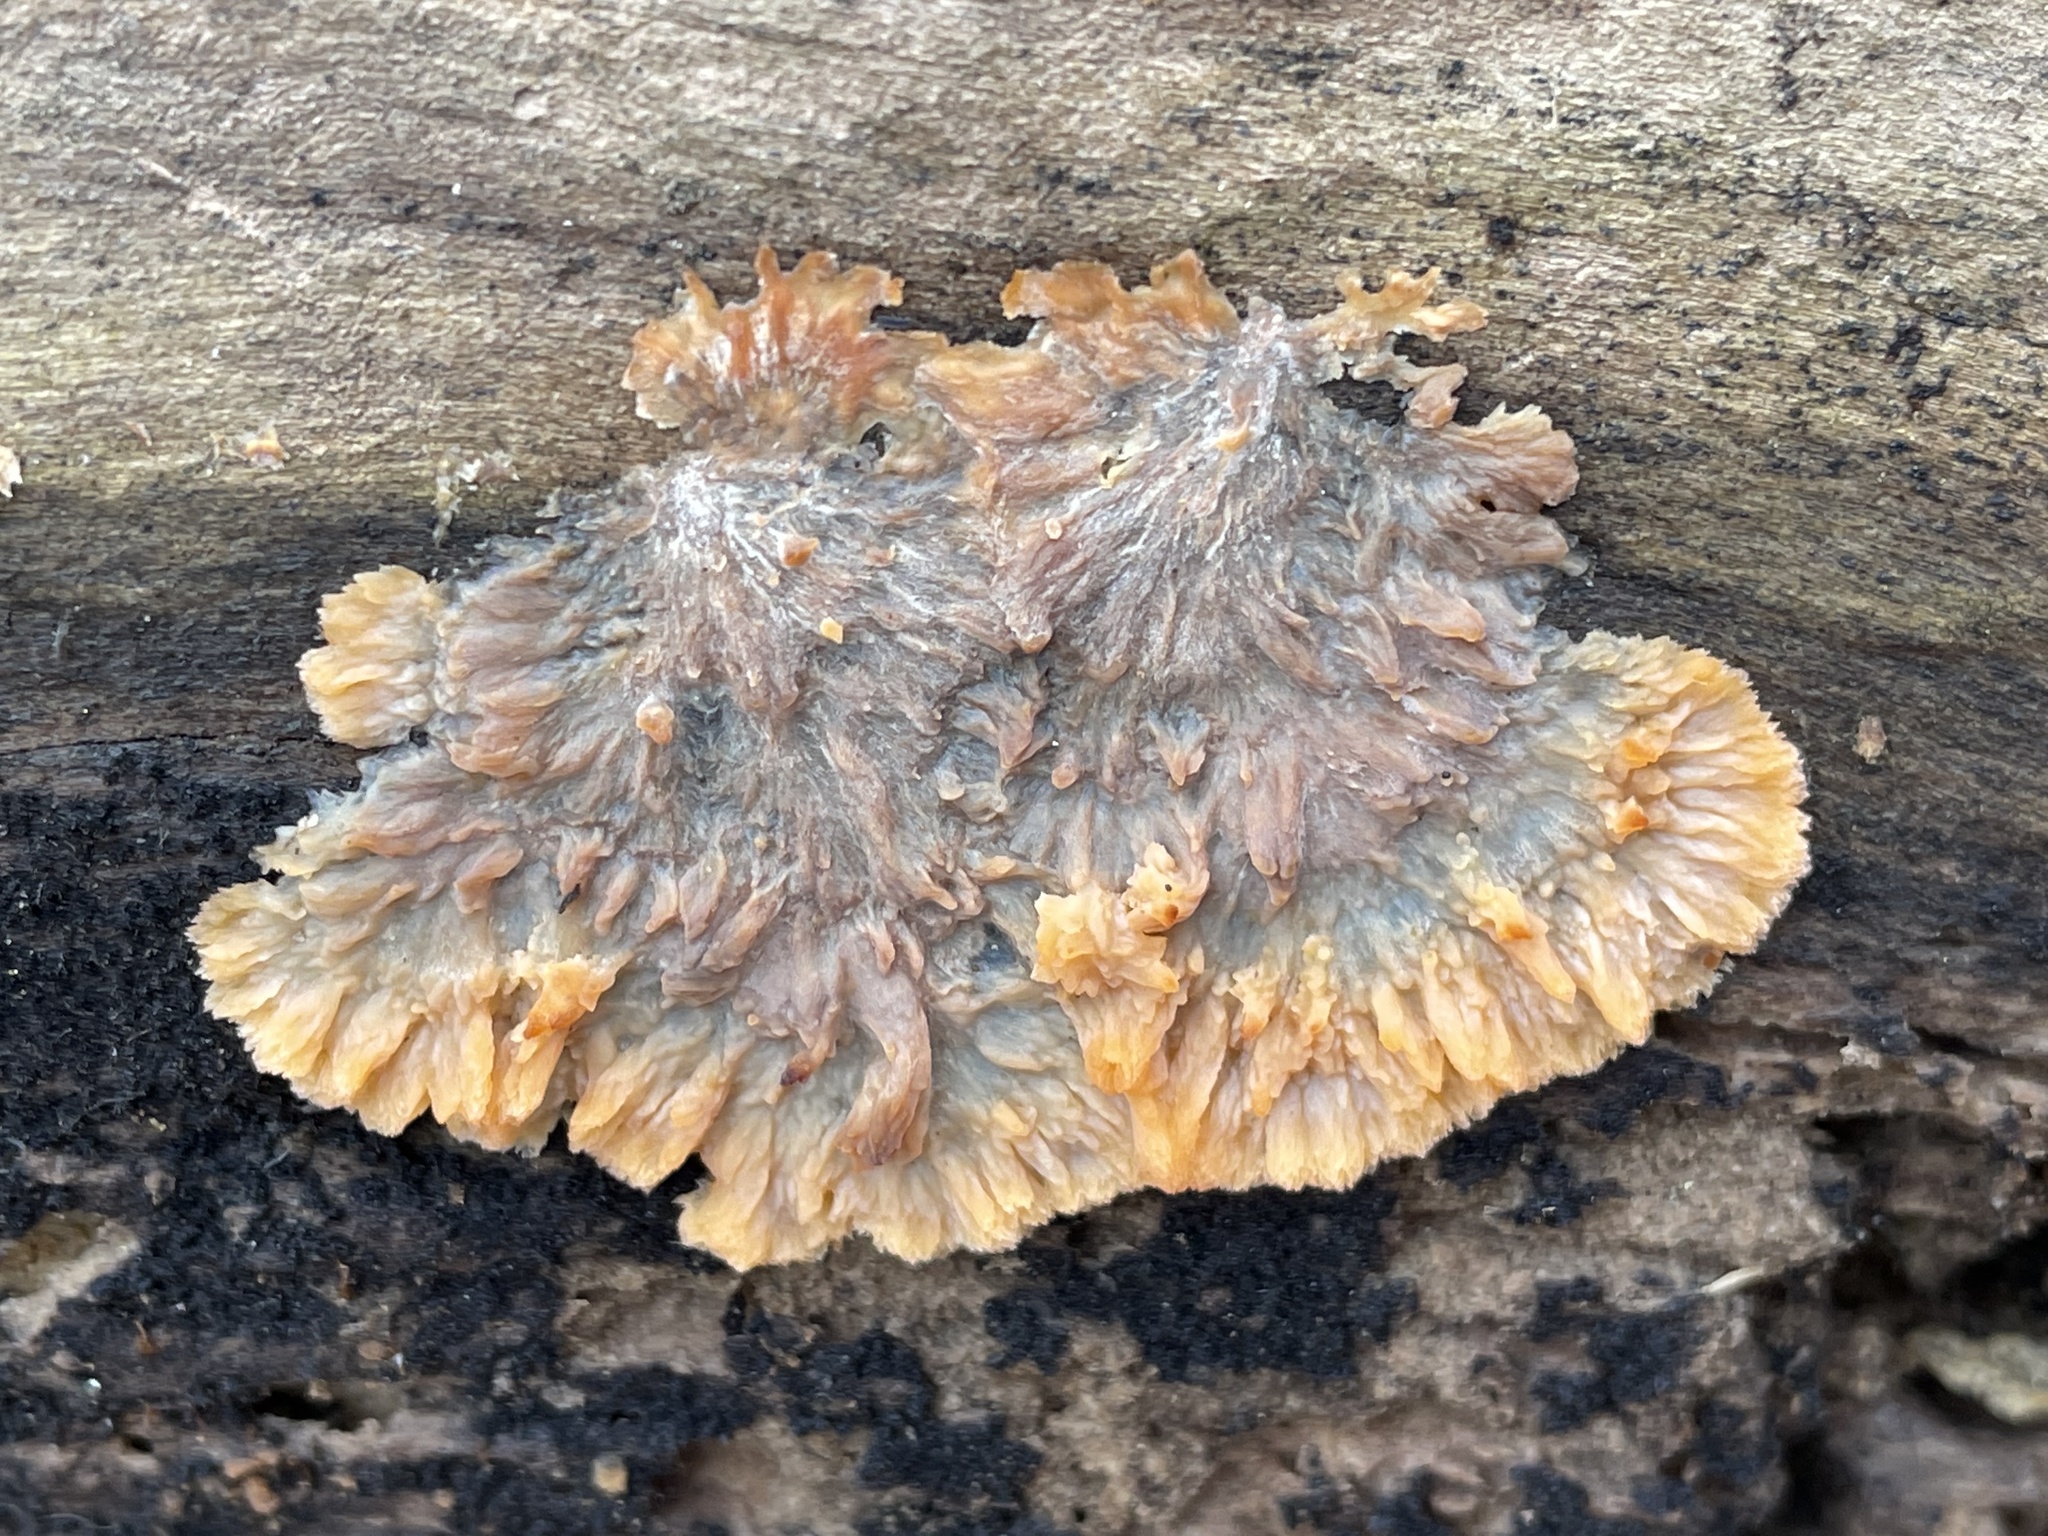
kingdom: Fungi
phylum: Basidiomycota
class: Agaricomycetes
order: Polyporales
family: Meruliaceae
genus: Phlebia
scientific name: Phlebia radiata
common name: Wrinkled crust
